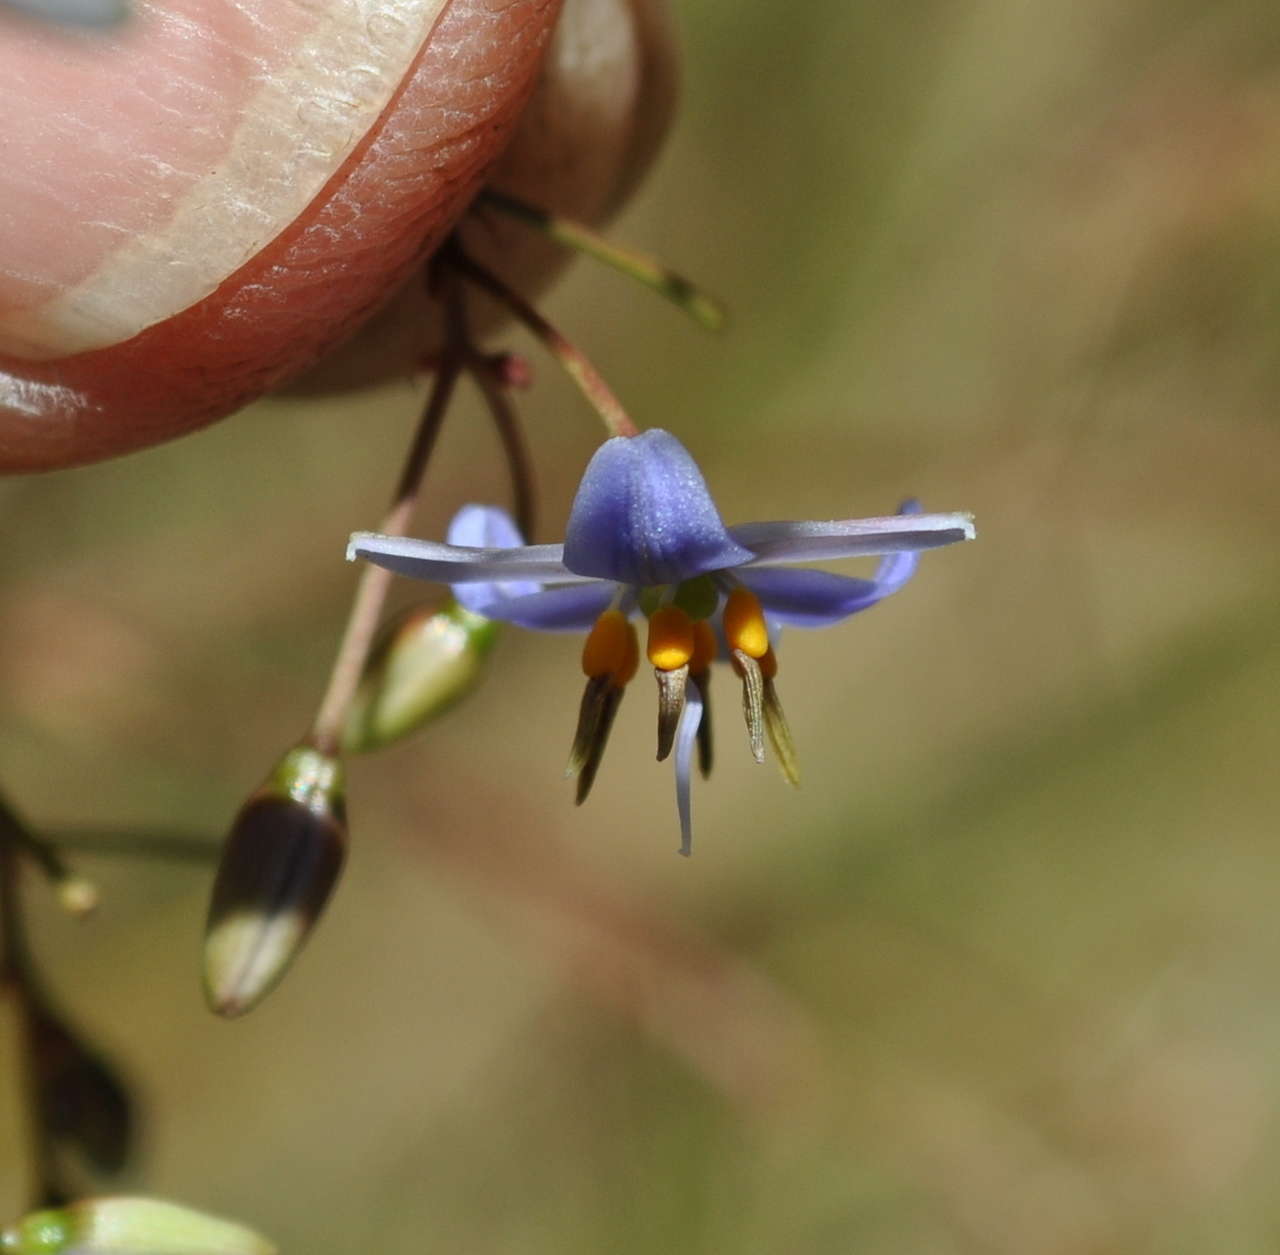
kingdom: Plantae
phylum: Tracheophyta
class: Liliopsida
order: Asparagales
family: Asphodelaceae
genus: Dianella
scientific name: Dianella callicarpa
